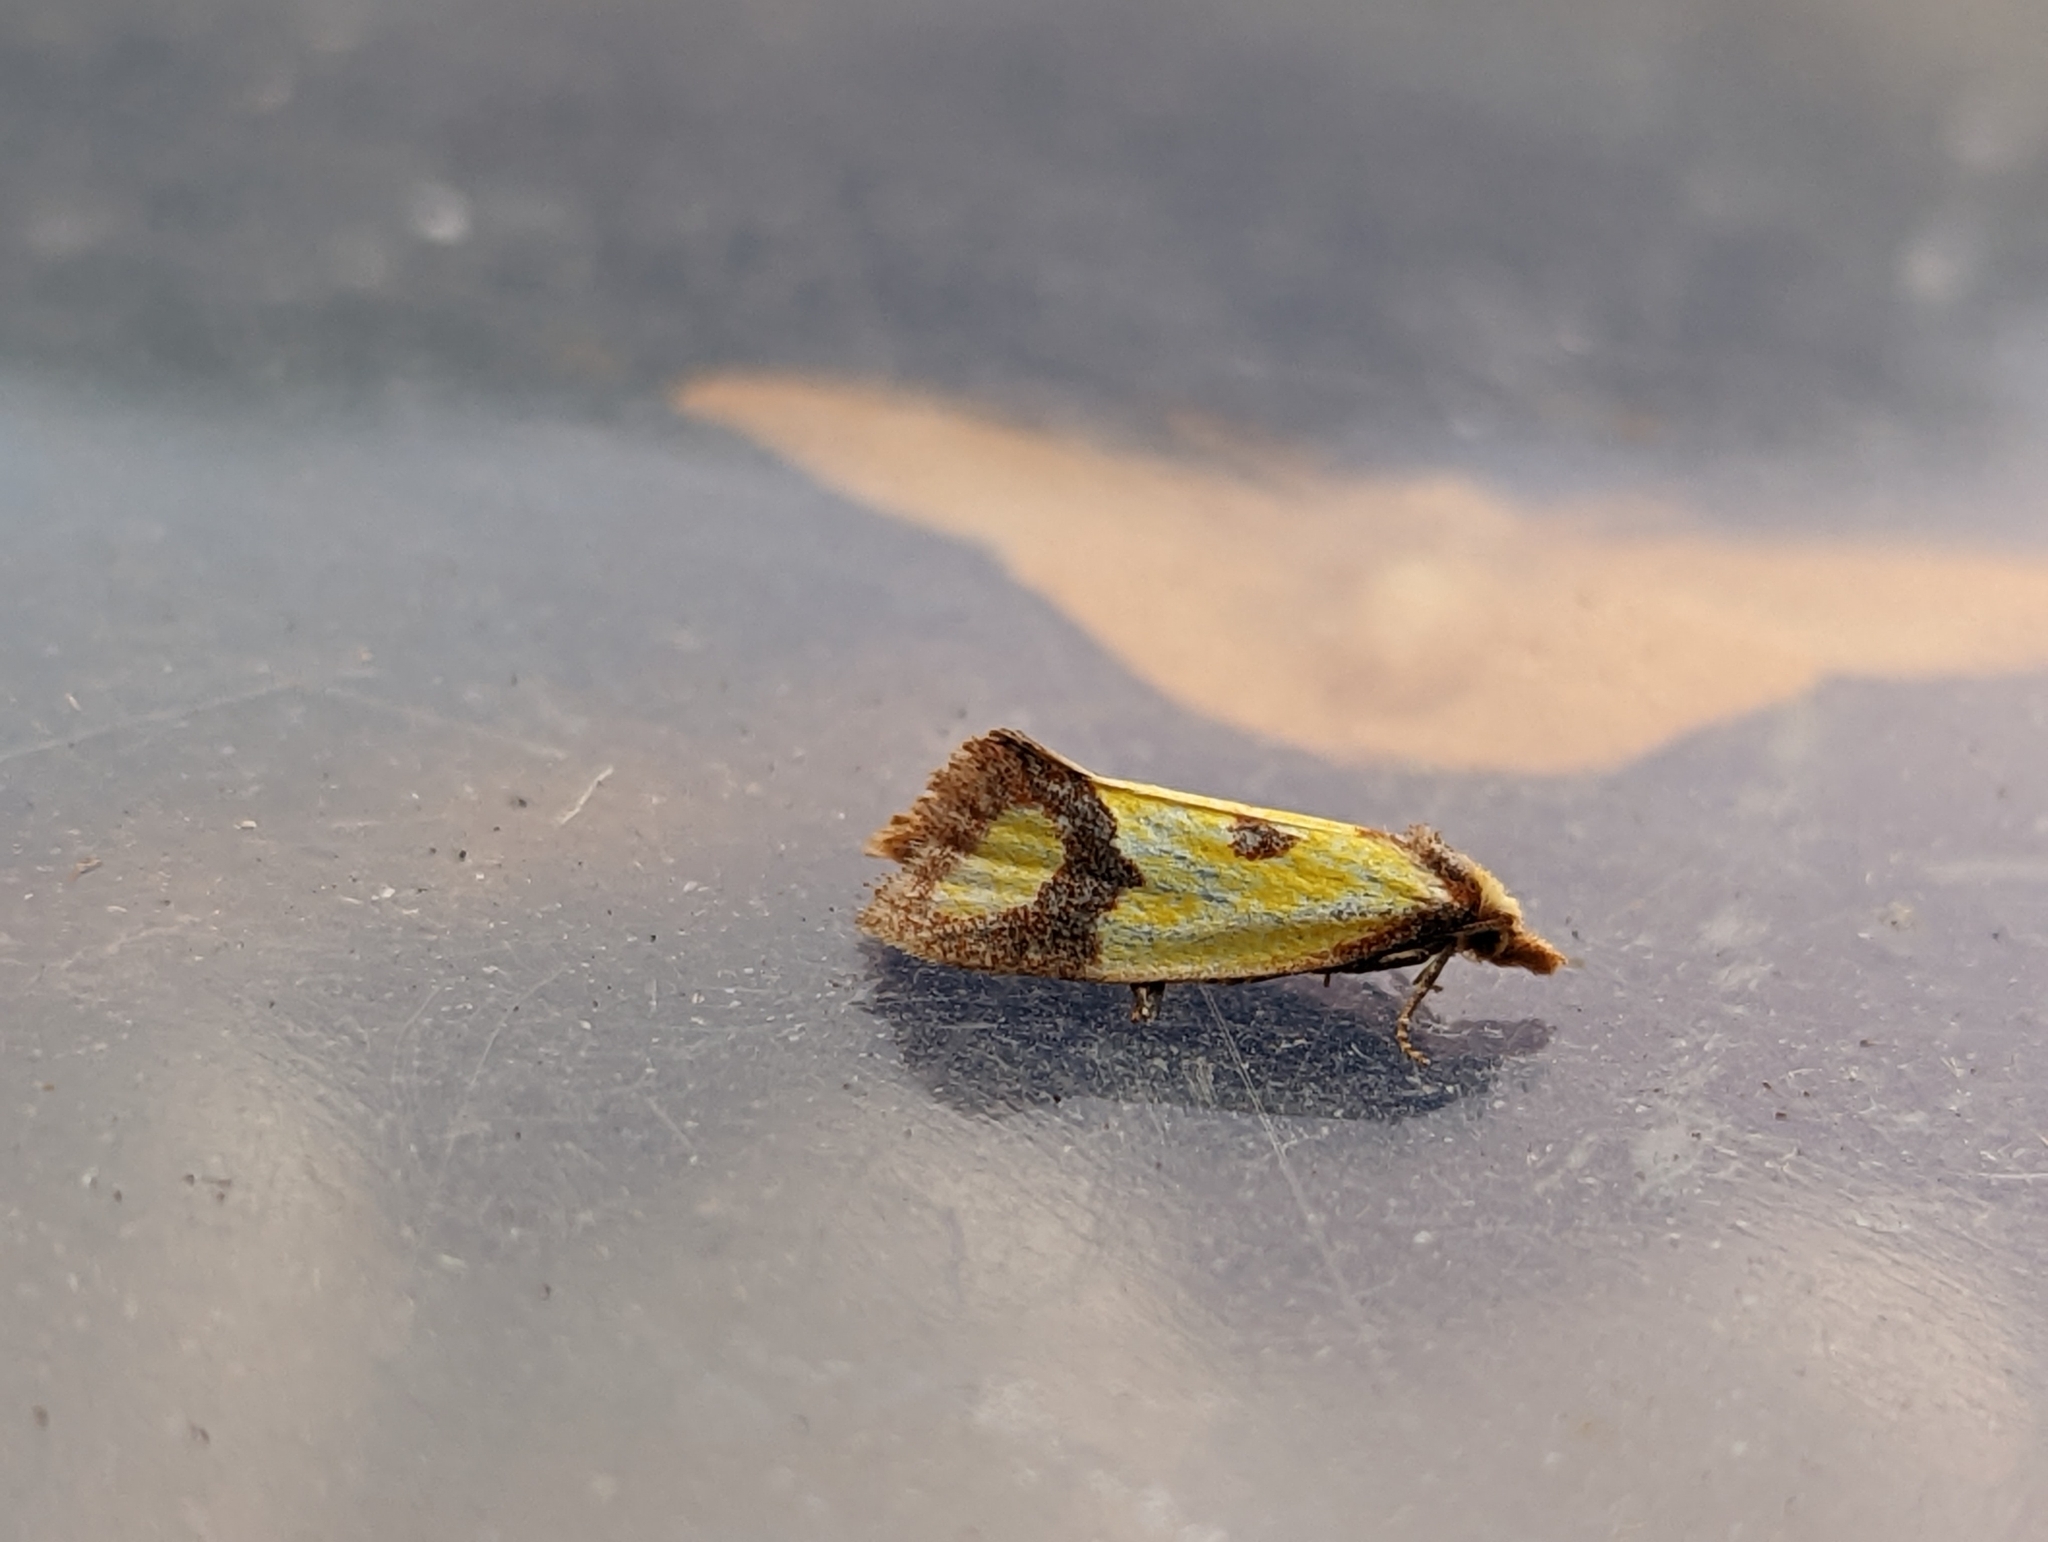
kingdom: Animalia
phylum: Arthropoda
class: Insecta
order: Lepidoptera
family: Tortricidae
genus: Agapeta
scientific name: Agapeta zoegana
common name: Sulfur knapweed root moth
